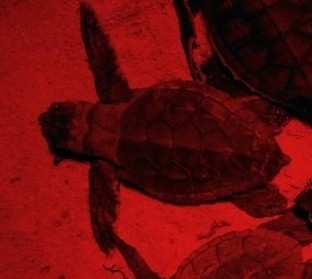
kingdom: Animalia
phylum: Chordata
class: Testudines
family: Cheloniidae
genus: Caretta
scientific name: Caretta caretta
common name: Loggerhead sea turtle
